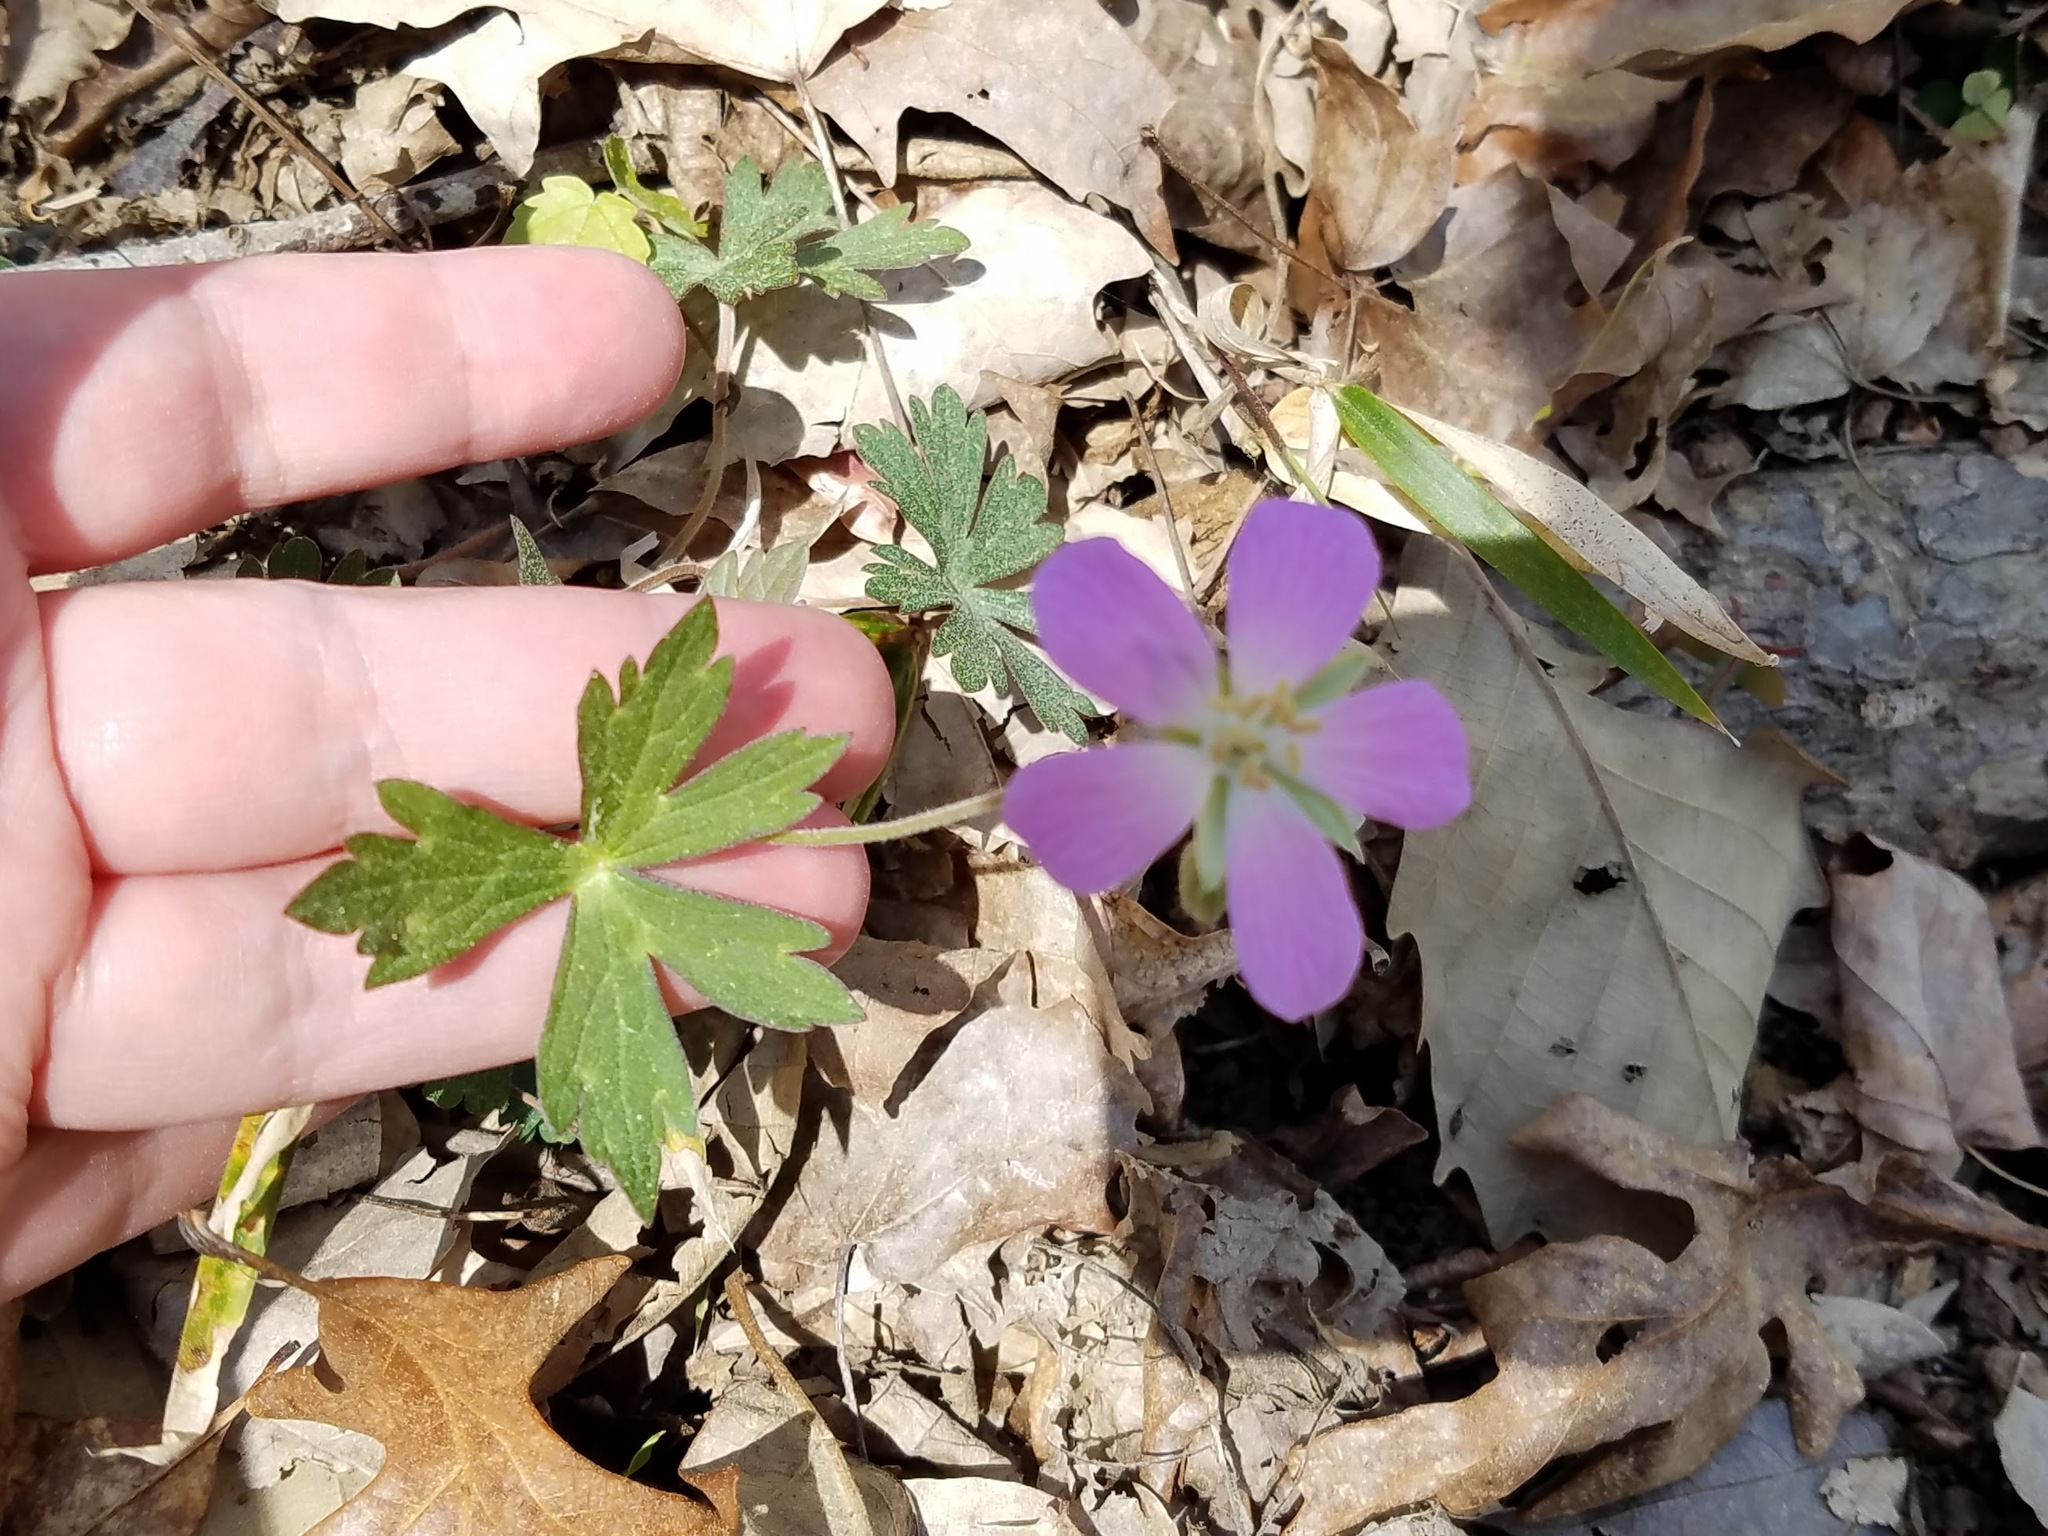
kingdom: Plantae
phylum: Tracheophyta
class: Magnoliopsida
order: Geraniales
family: Geraniaceae
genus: Geranium
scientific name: Geranium maculatum
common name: Spotted geranium
